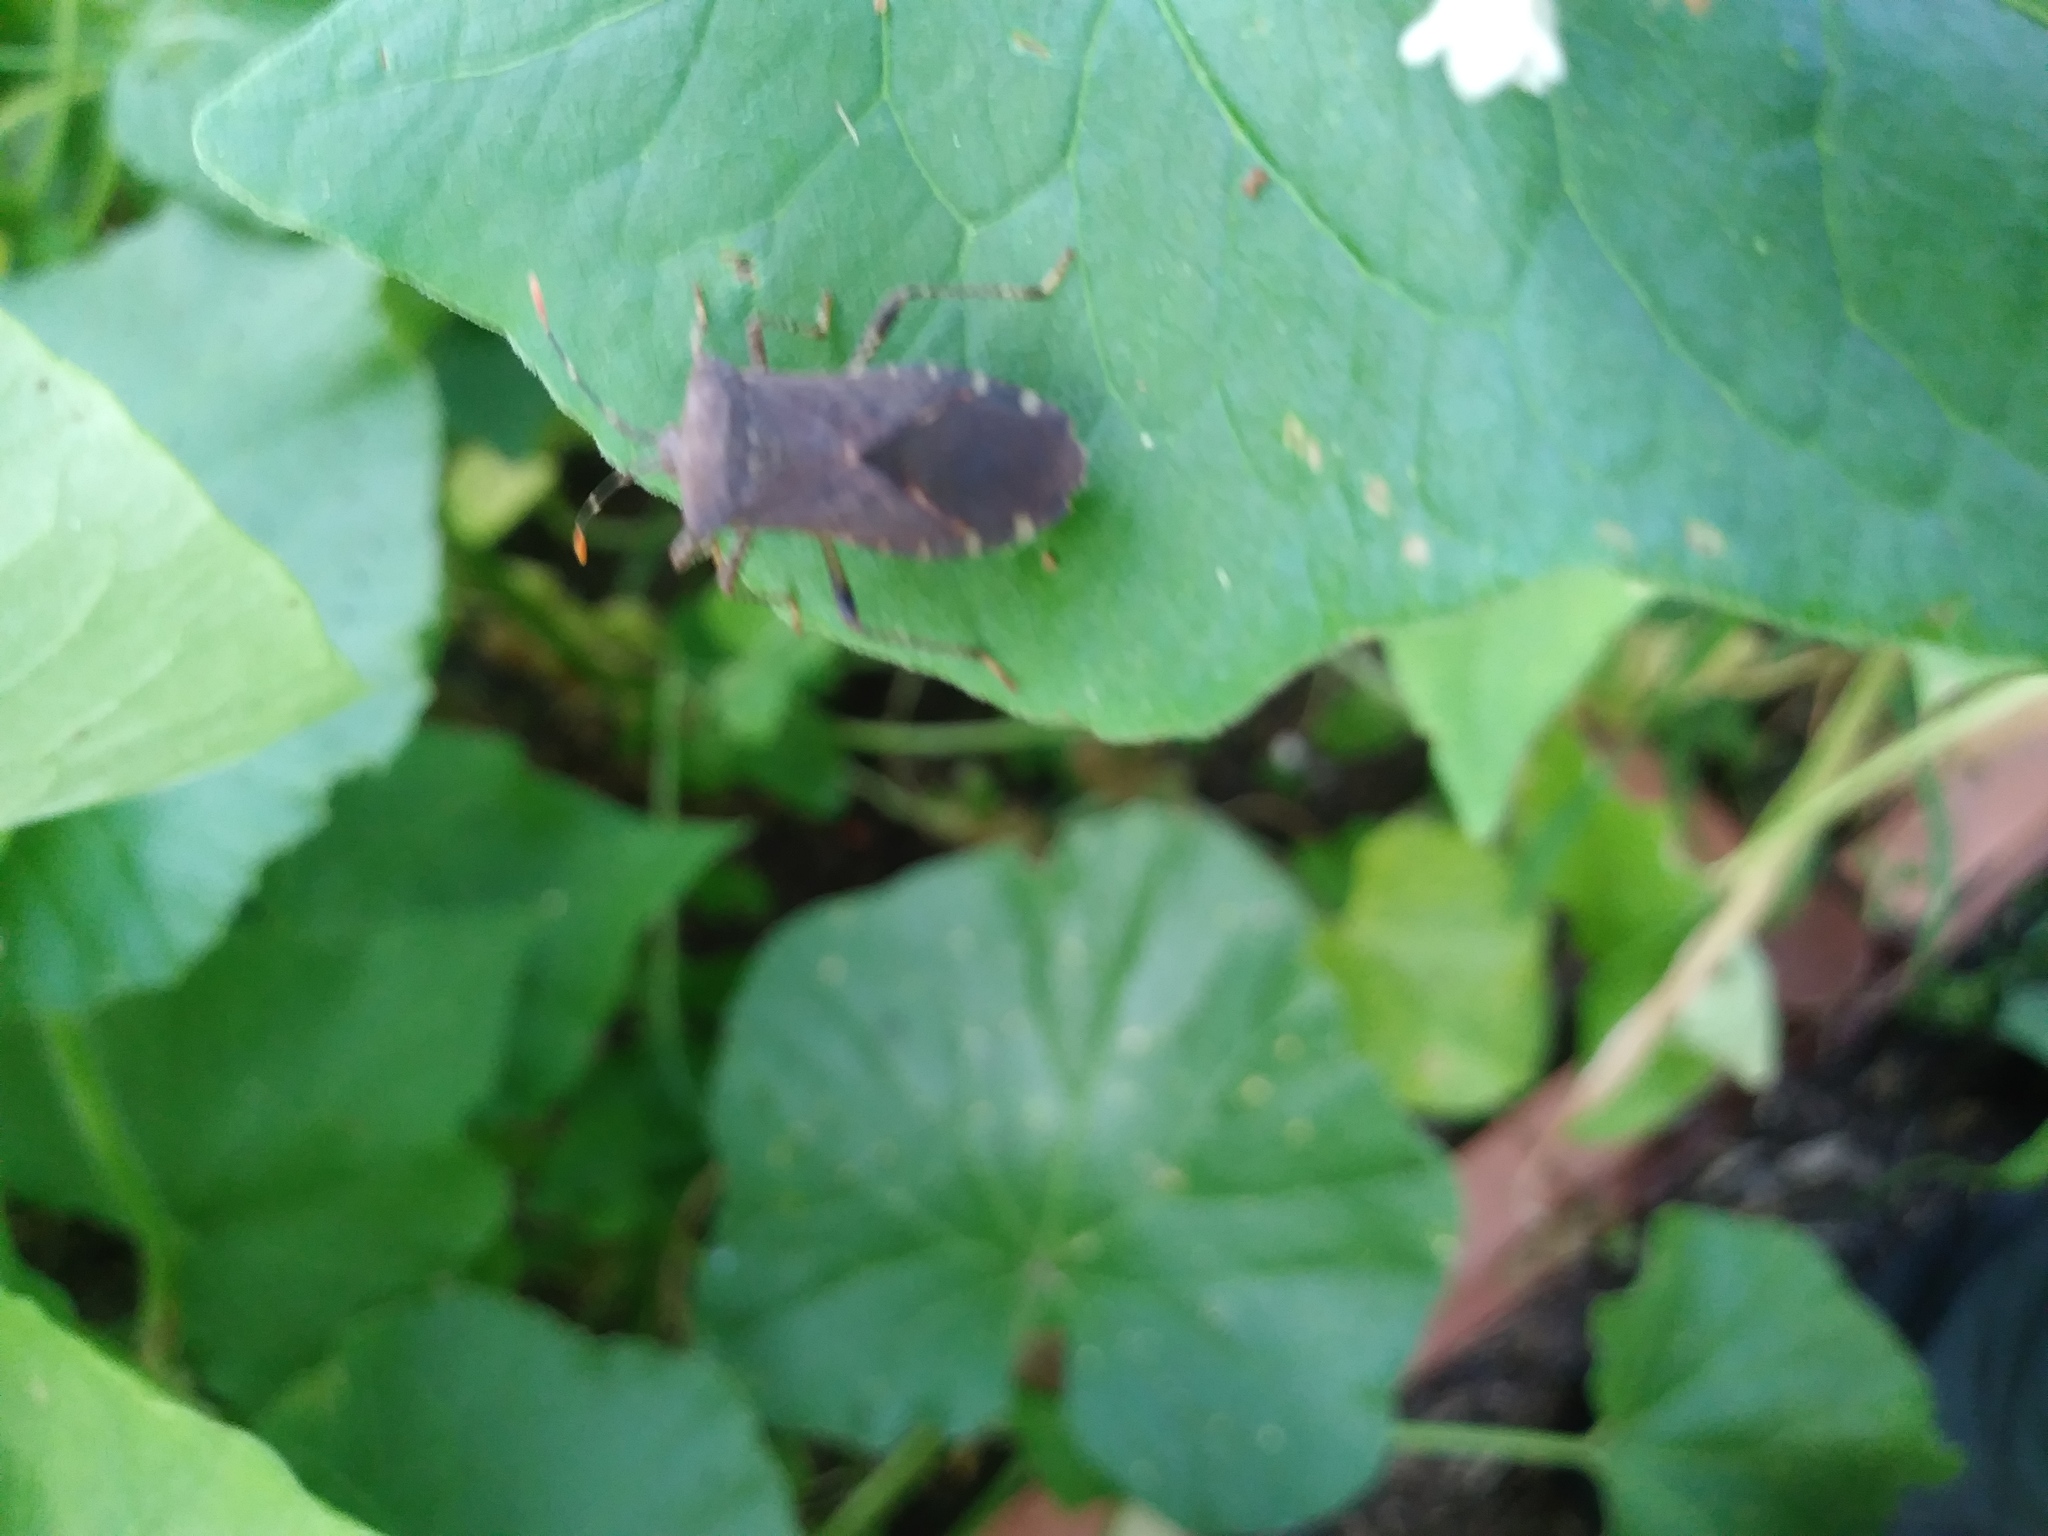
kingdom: Animalia
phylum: Arthropoda
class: Insecta
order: Hemiptera
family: Coreidae
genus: Anasa
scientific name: Anasa armigera
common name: Horned squash bug
